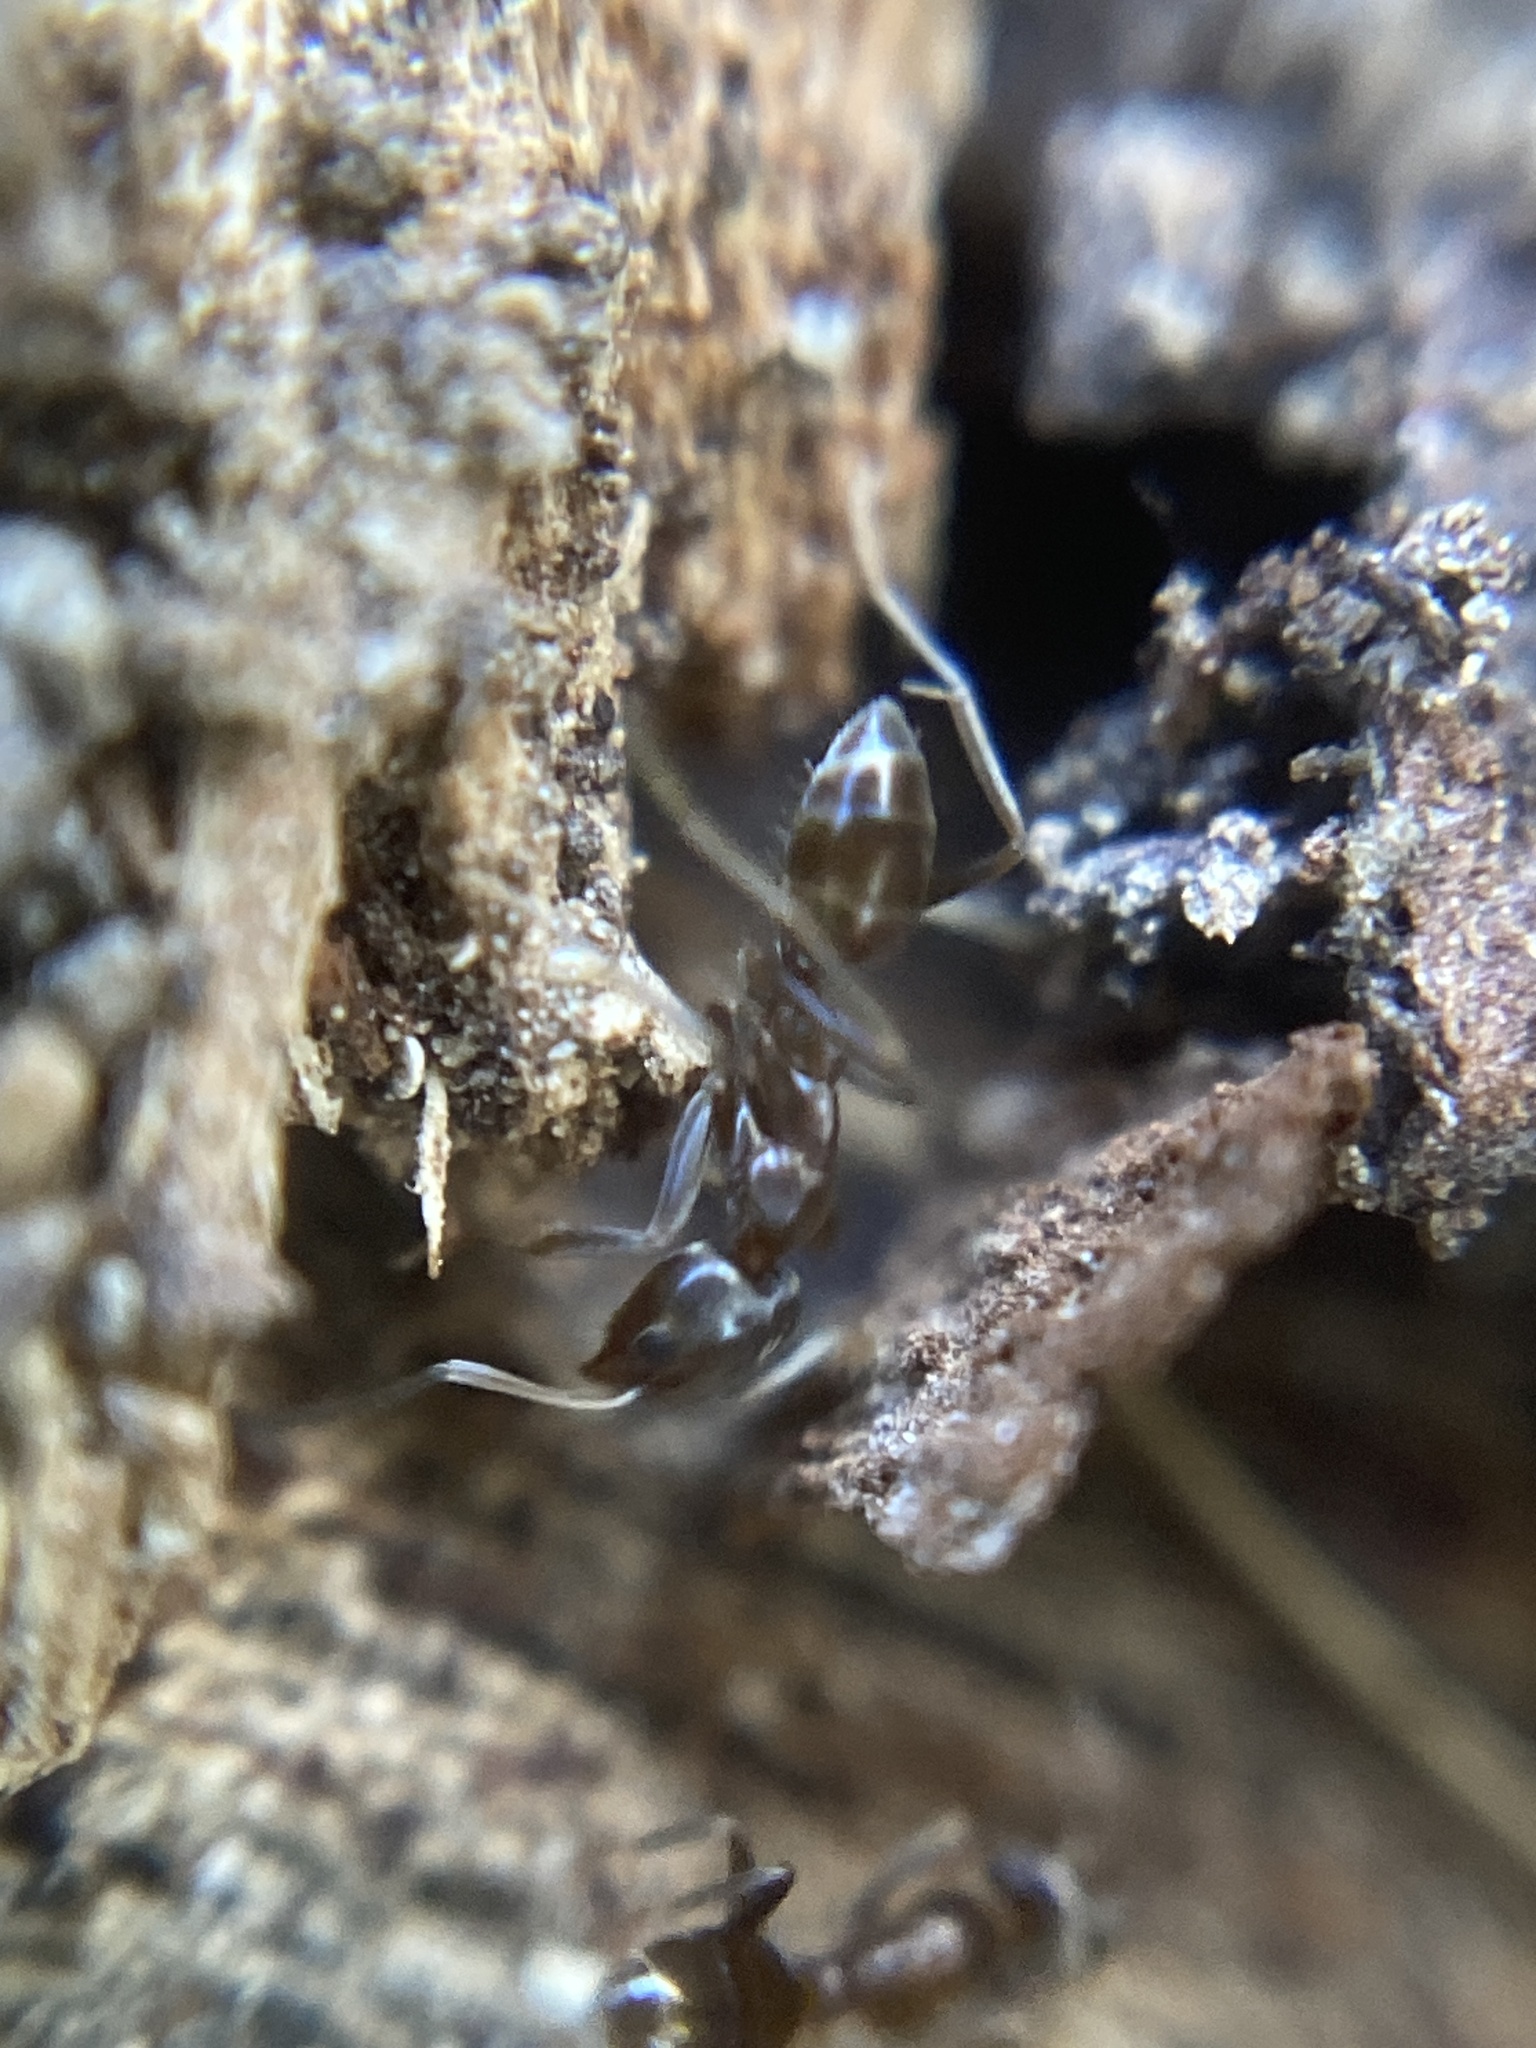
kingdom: Animalia
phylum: Arthropoda
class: Insecta
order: Hymenoptera
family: Formicidae
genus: Linepithema
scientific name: Linepithema humile
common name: Argentine ant
